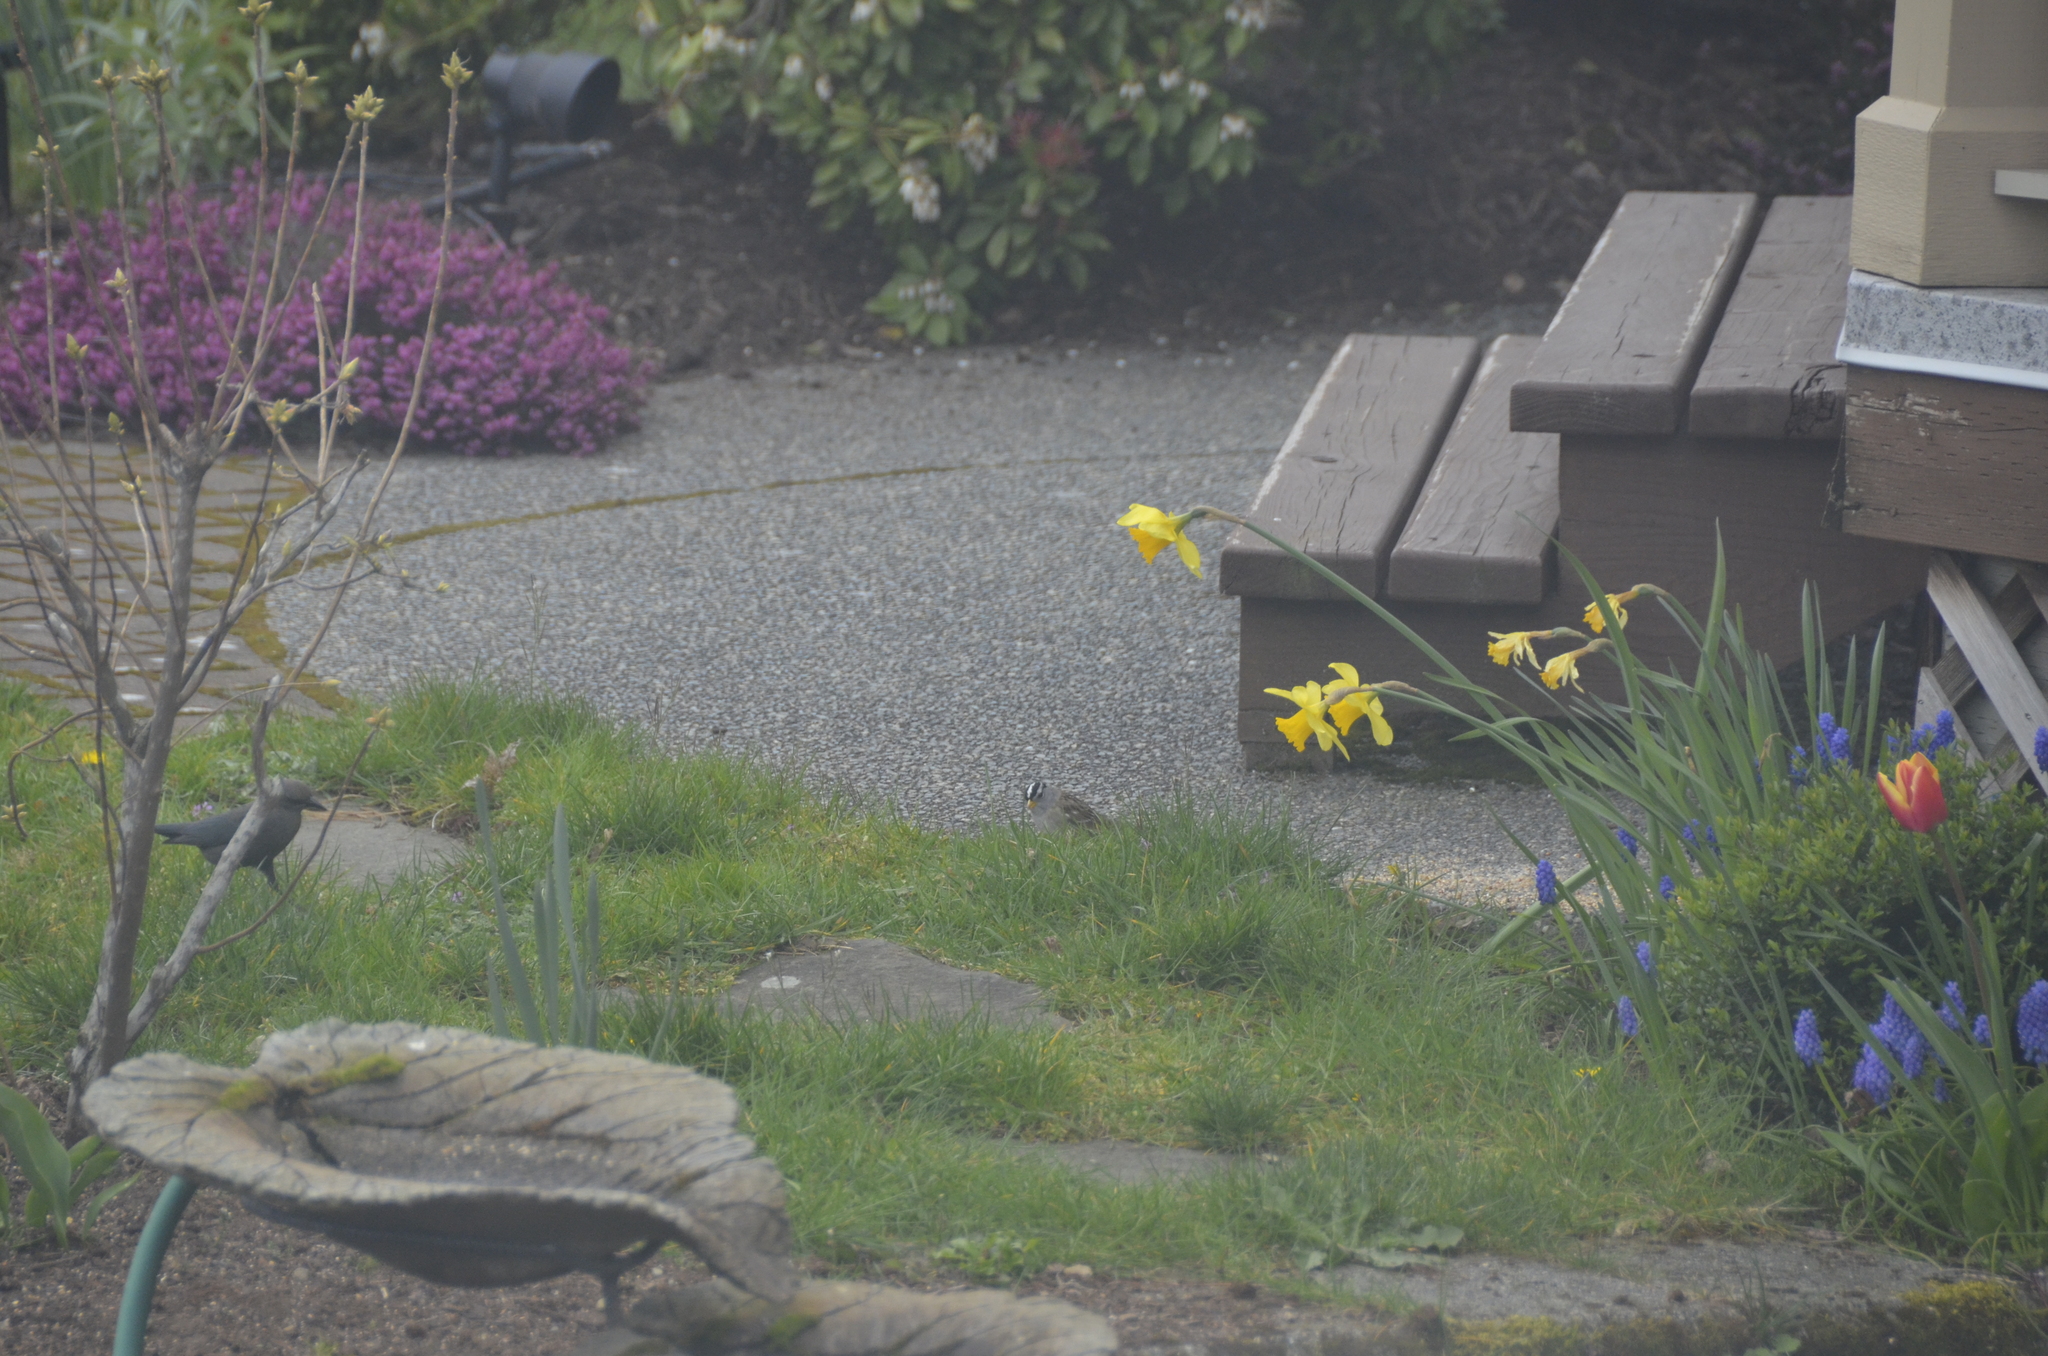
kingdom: Animalia
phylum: Chordata
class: Aves
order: Passeriformes
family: Passerellidae
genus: Zonotrichia
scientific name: Zonotrichia leucophrys
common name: White-crowned sparrow
